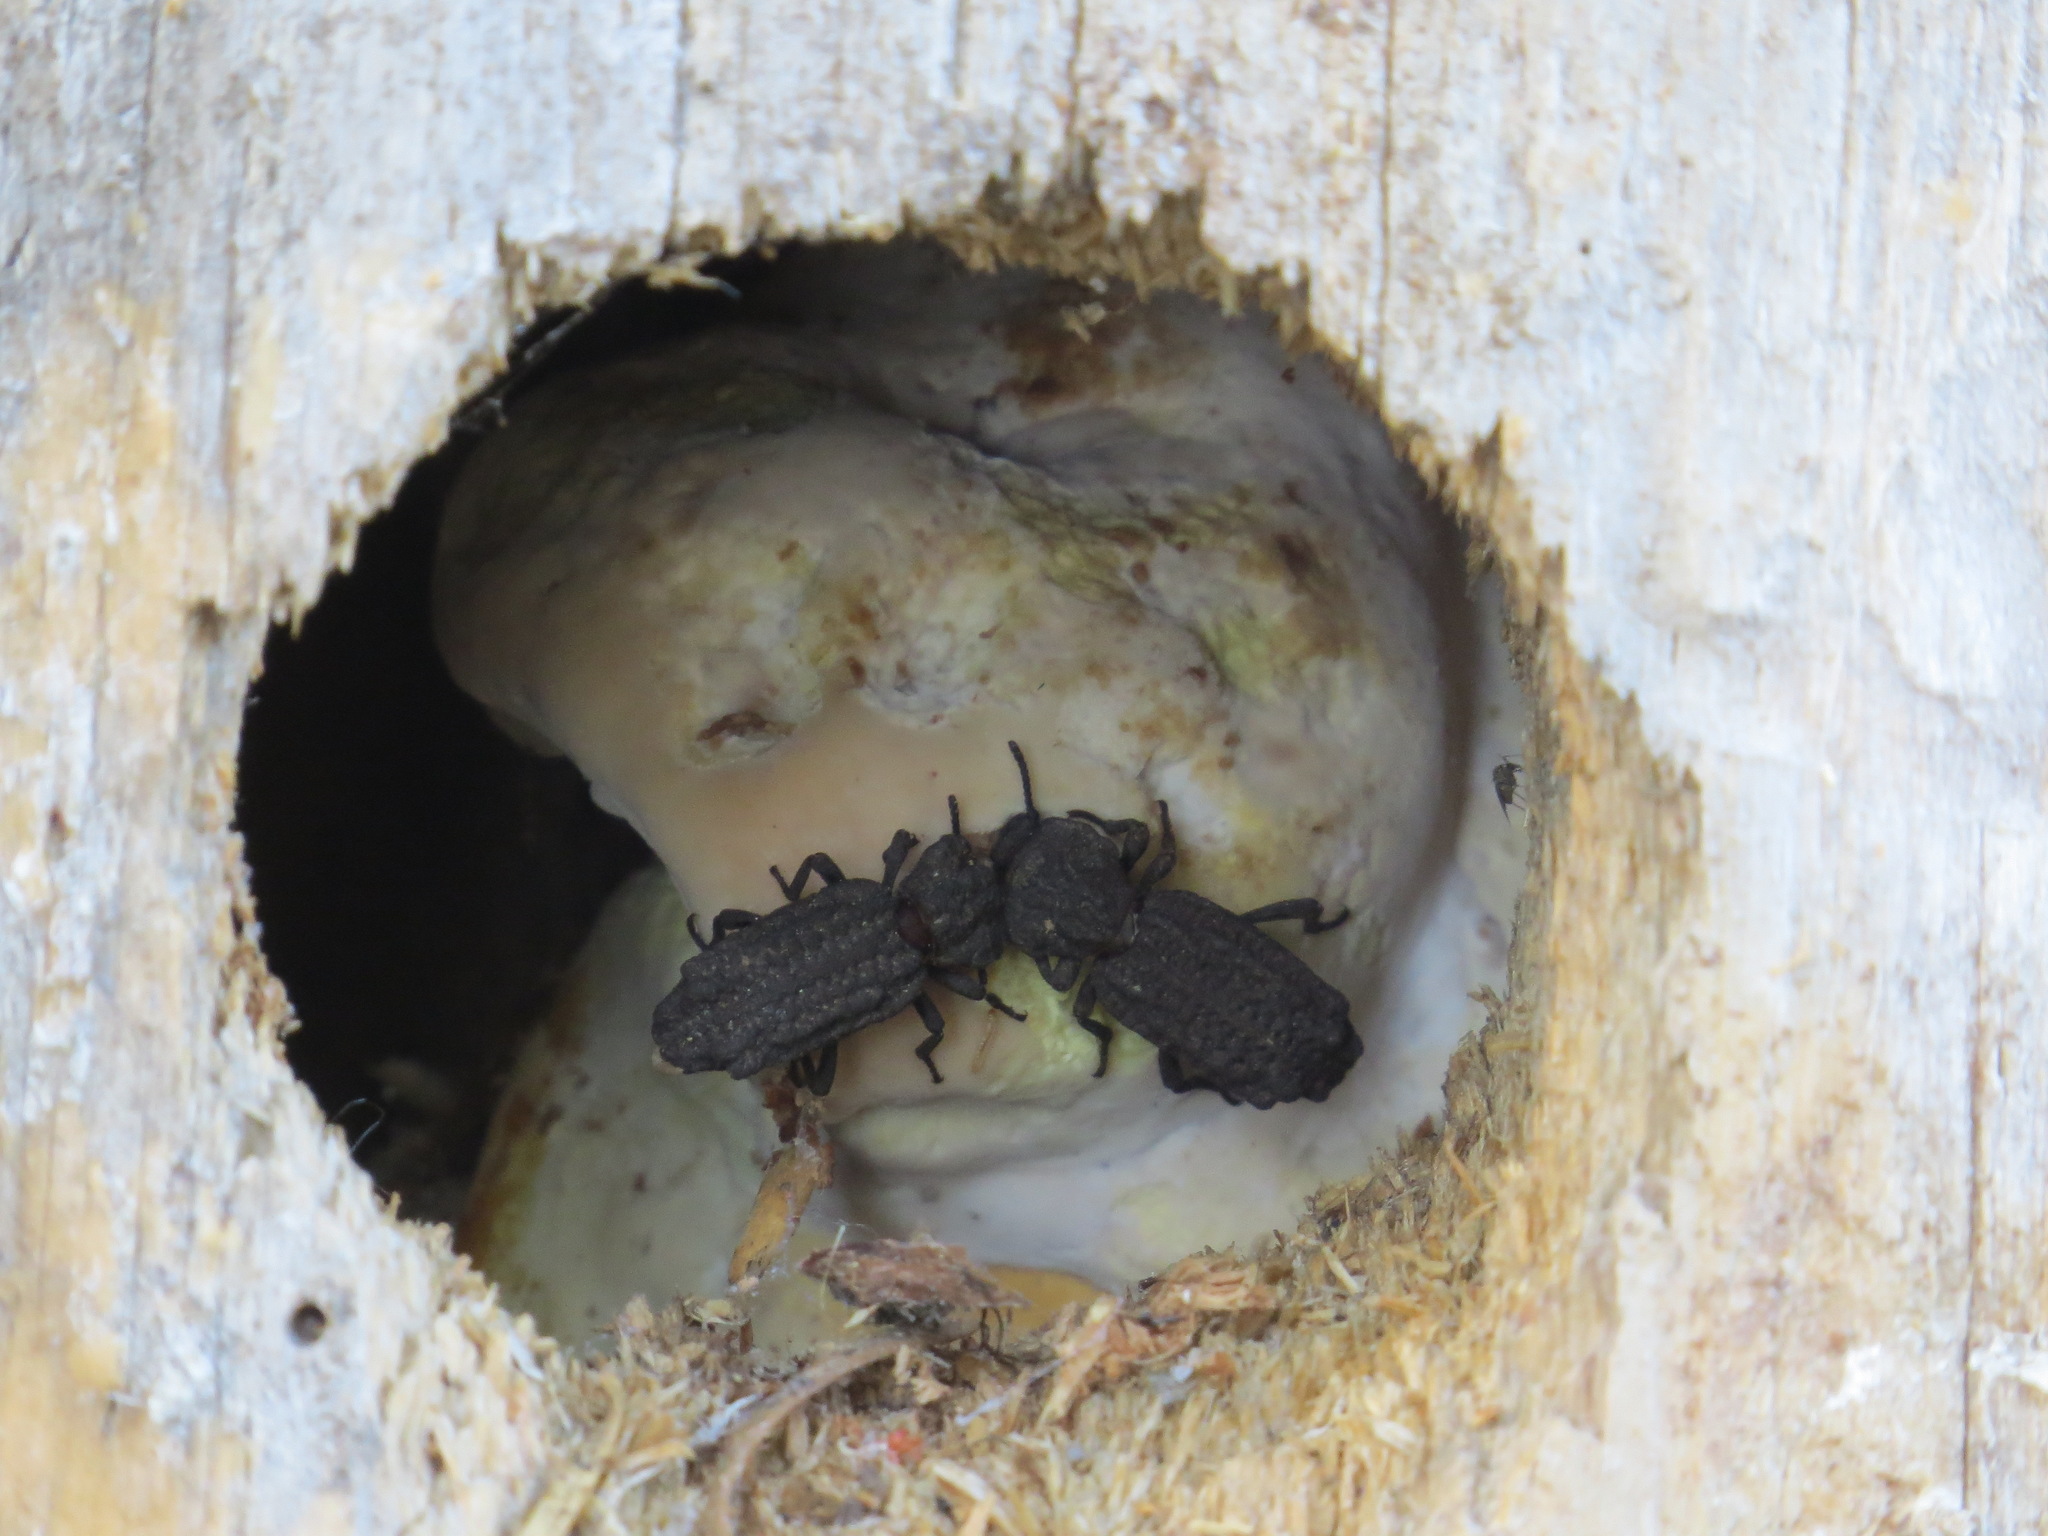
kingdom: Animalia
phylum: Arthropoda
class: Insecta
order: Coleoptera
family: Zopheridae
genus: Phellopsis
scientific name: Phellopsis porcata
